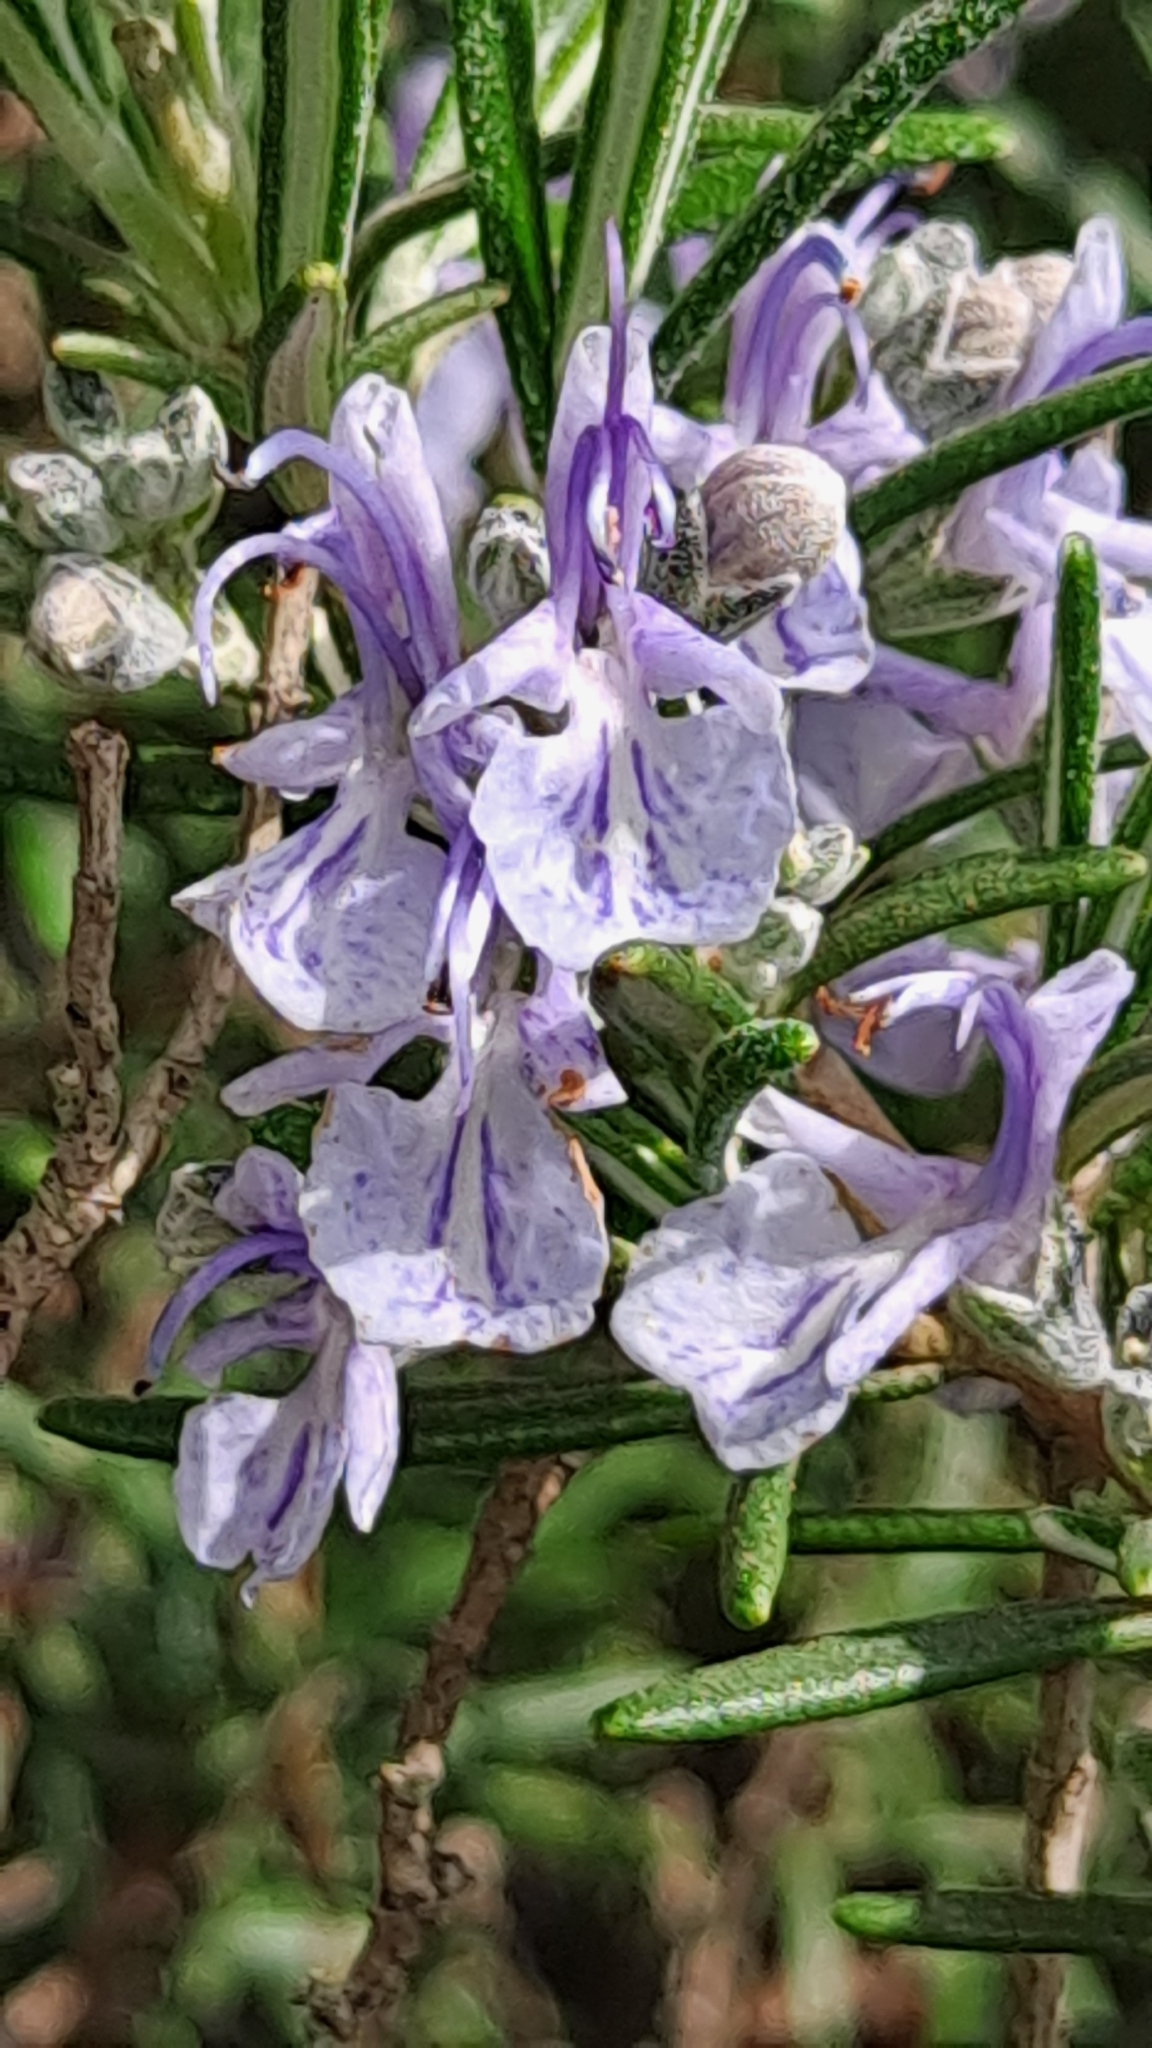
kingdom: Plantae
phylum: Tracheophyta
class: Magnoliopsida
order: Lamiales
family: Lamiaceae
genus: Salvia
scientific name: Salvia rosmarinus
